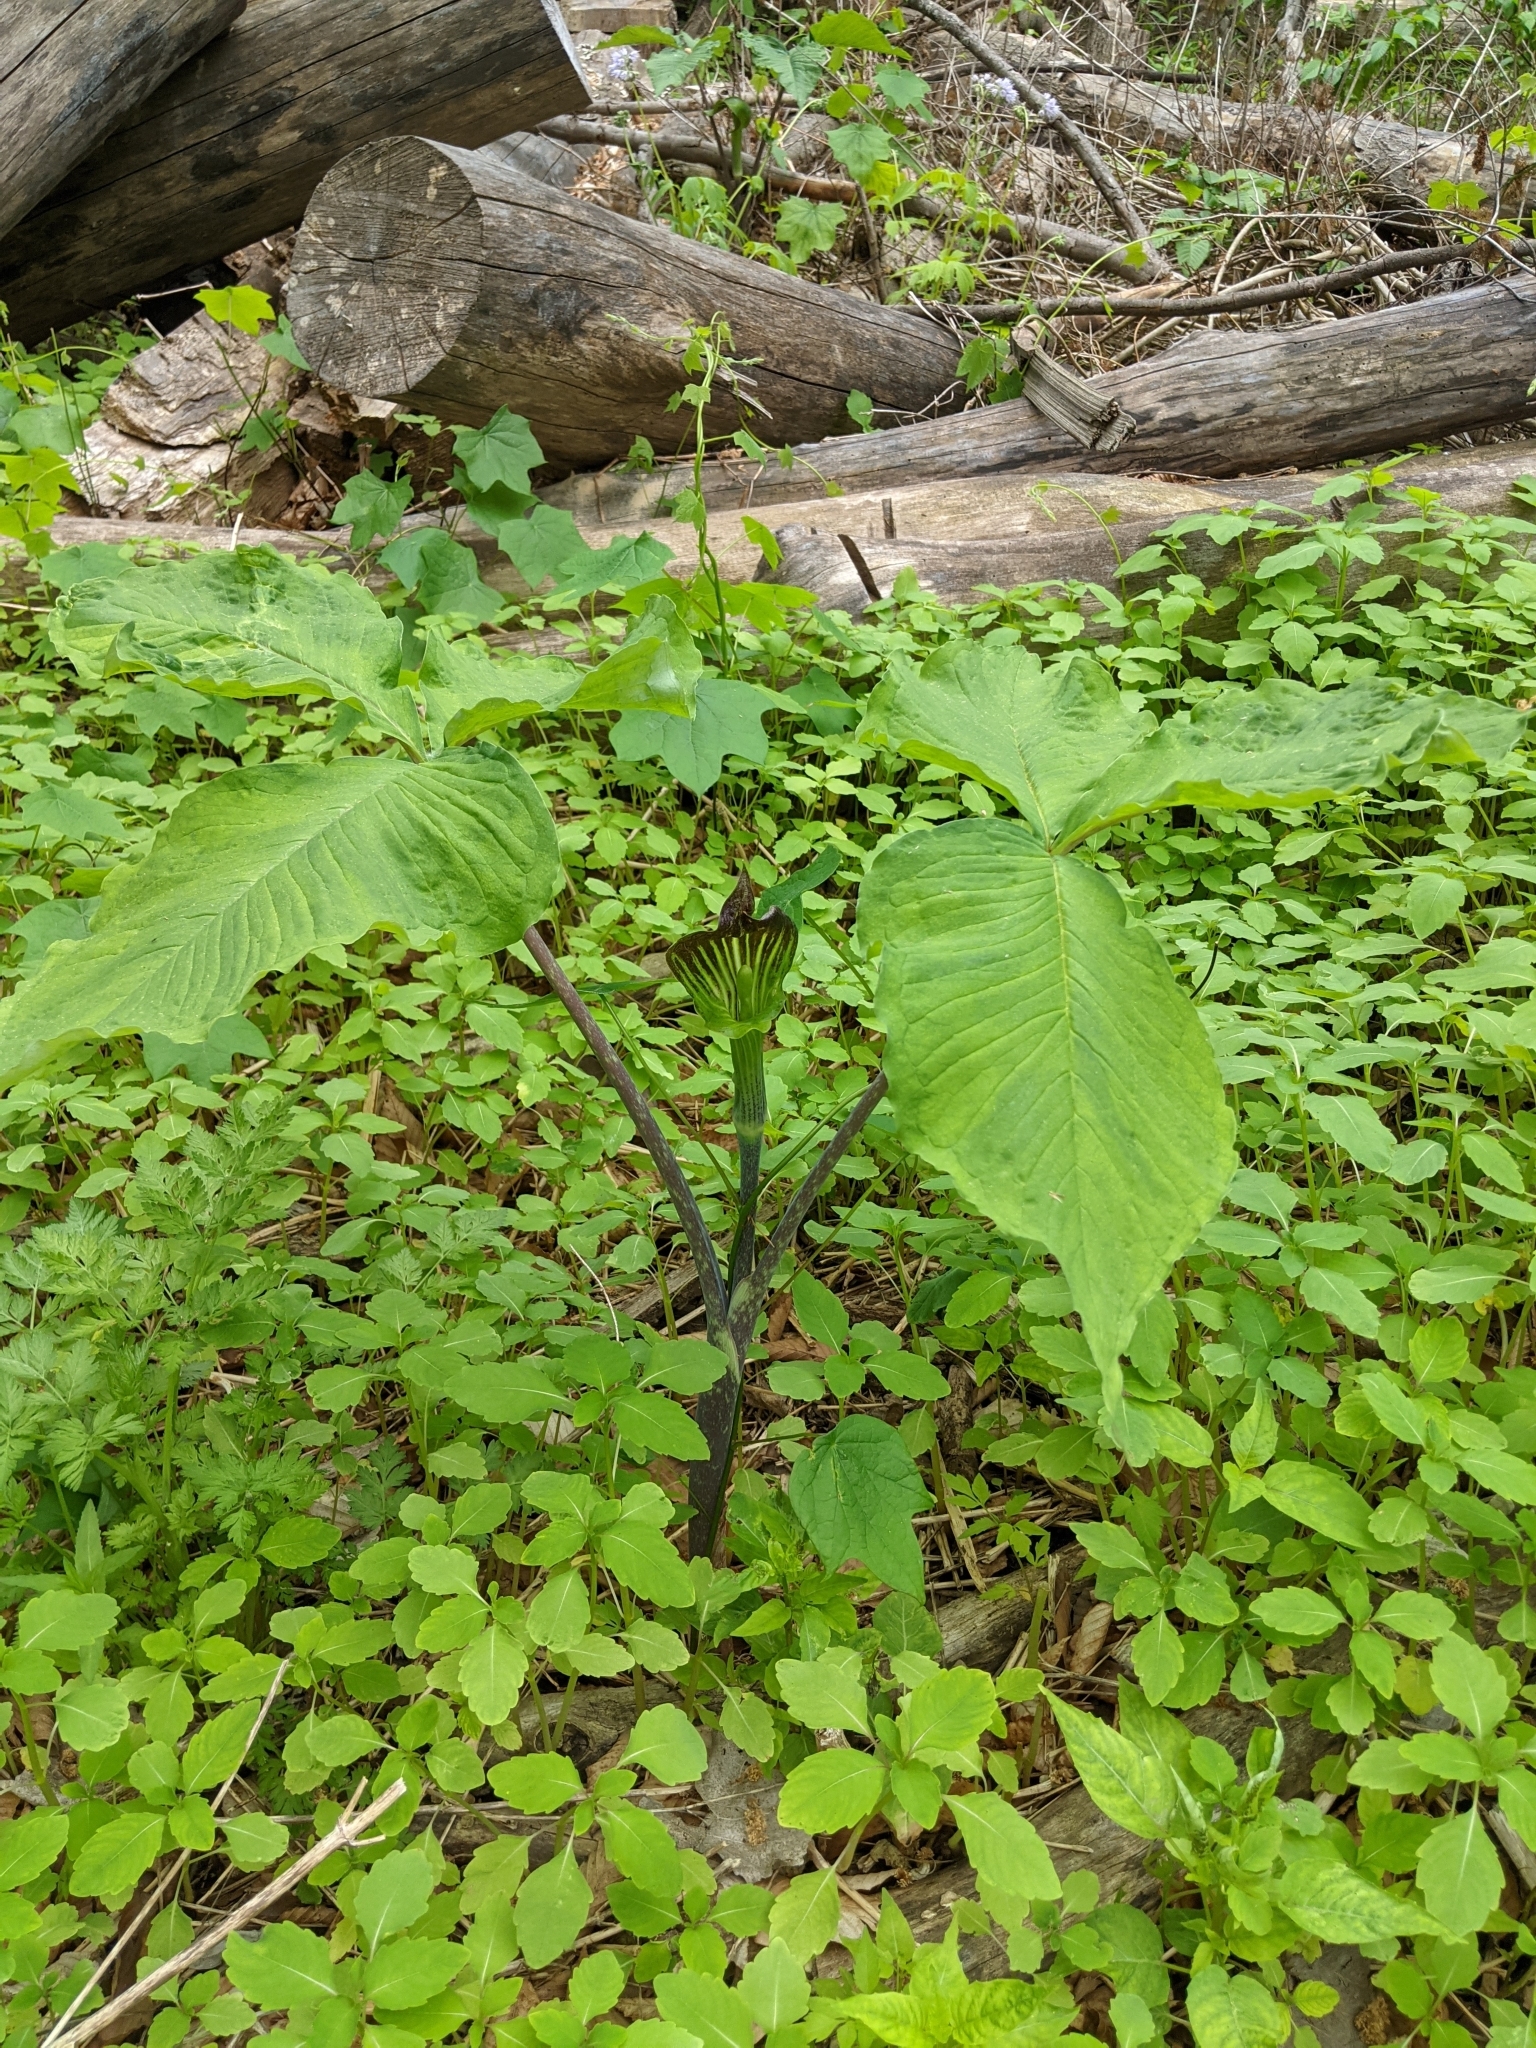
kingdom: Plantae
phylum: Tracheophyta
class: Liliopsida
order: Alismatales
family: Araceae
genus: Arisaema
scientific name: Arisaema triphyllum
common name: Jack-in-the-pulpit
